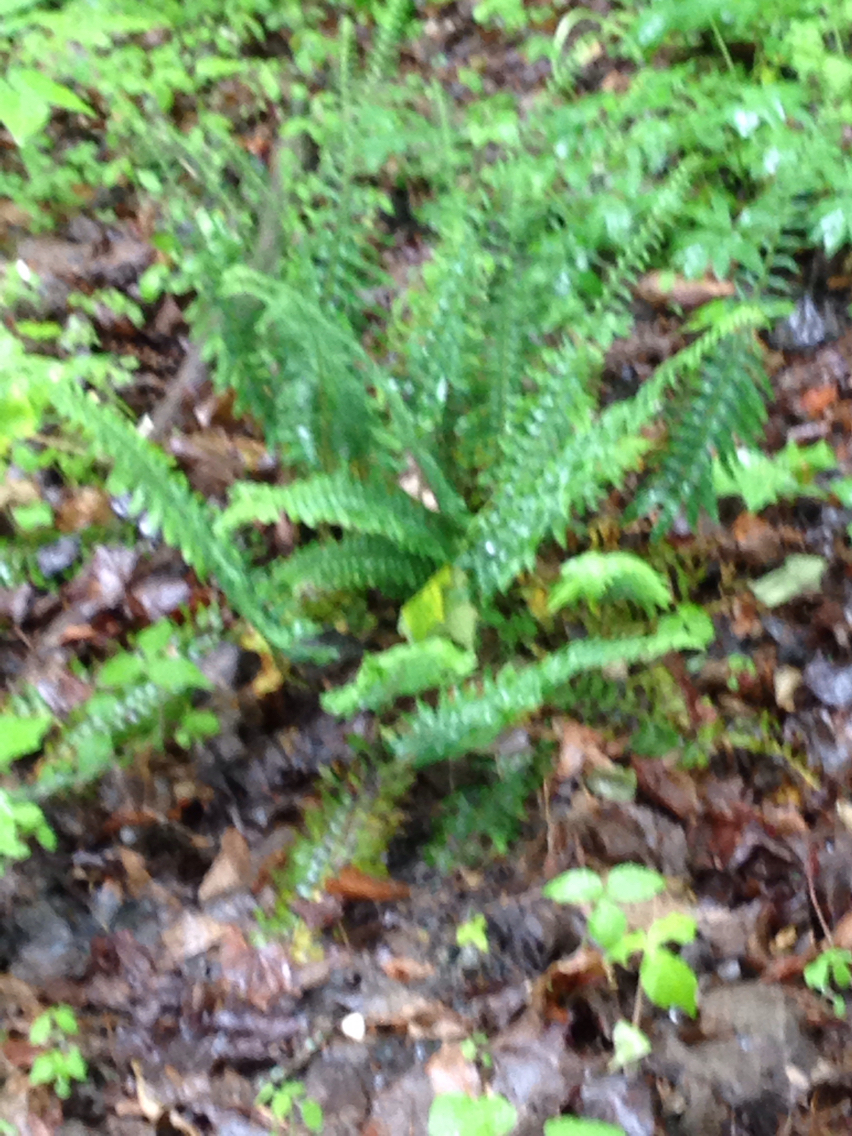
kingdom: Plantae
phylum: Tracheophyta
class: Polypodiopsida
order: Polypodiales
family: Dryopteridaceae
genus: Polystichum
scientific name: Polystichum acrostichoides
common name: Christmas fern
